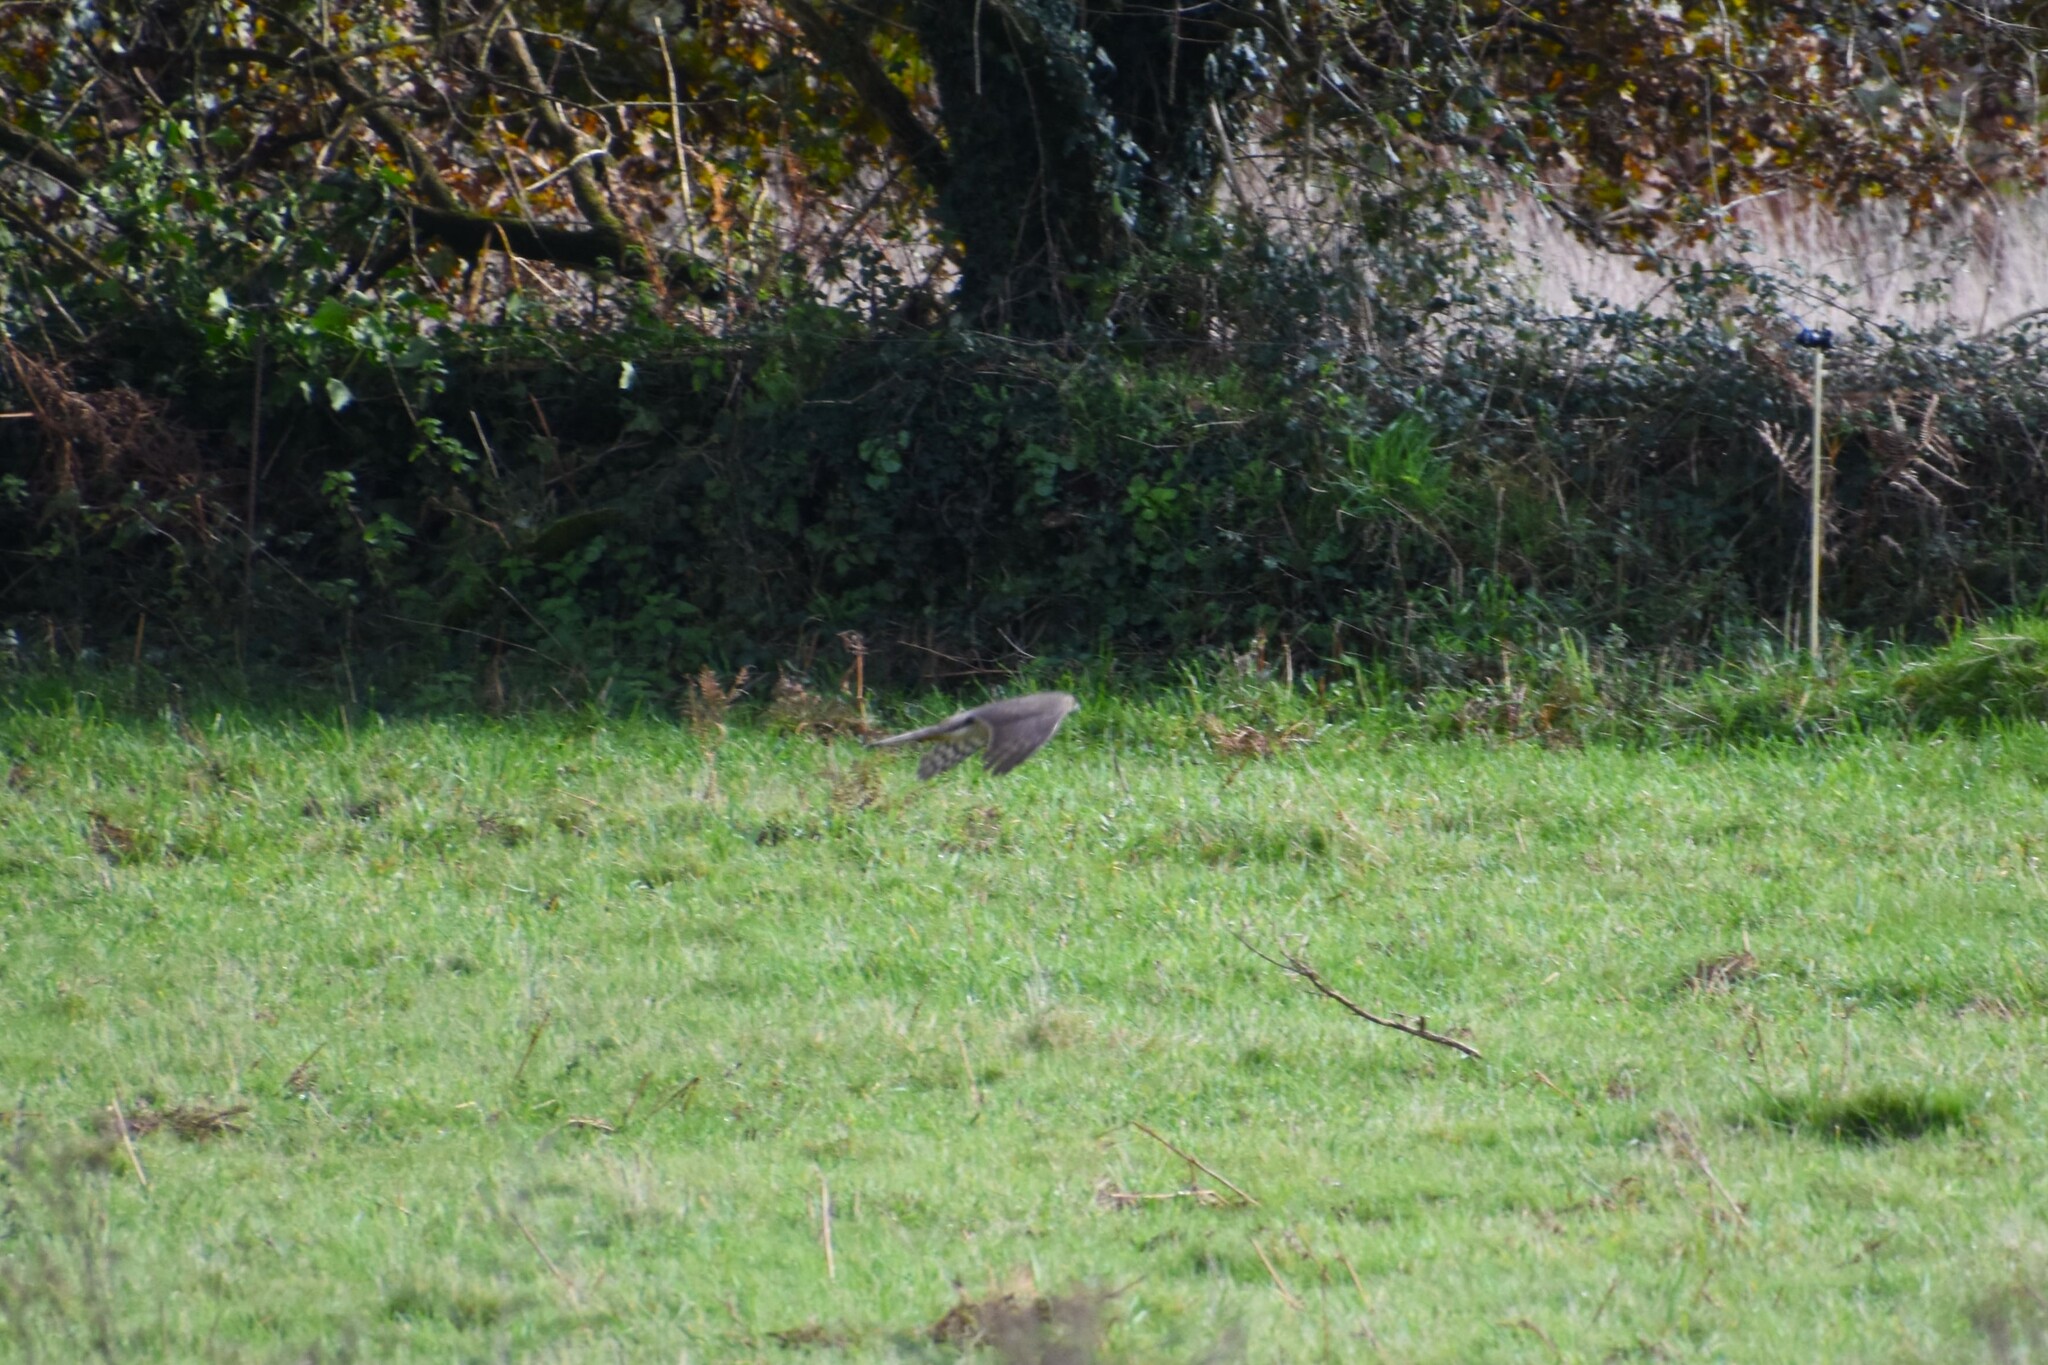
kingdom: Animalia
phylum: Chordata
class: Aves
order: Accipitriformes
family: Accipitridae
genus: Accipiter
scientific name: Accipiter nisus
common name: Eurasian sparrowhawk
